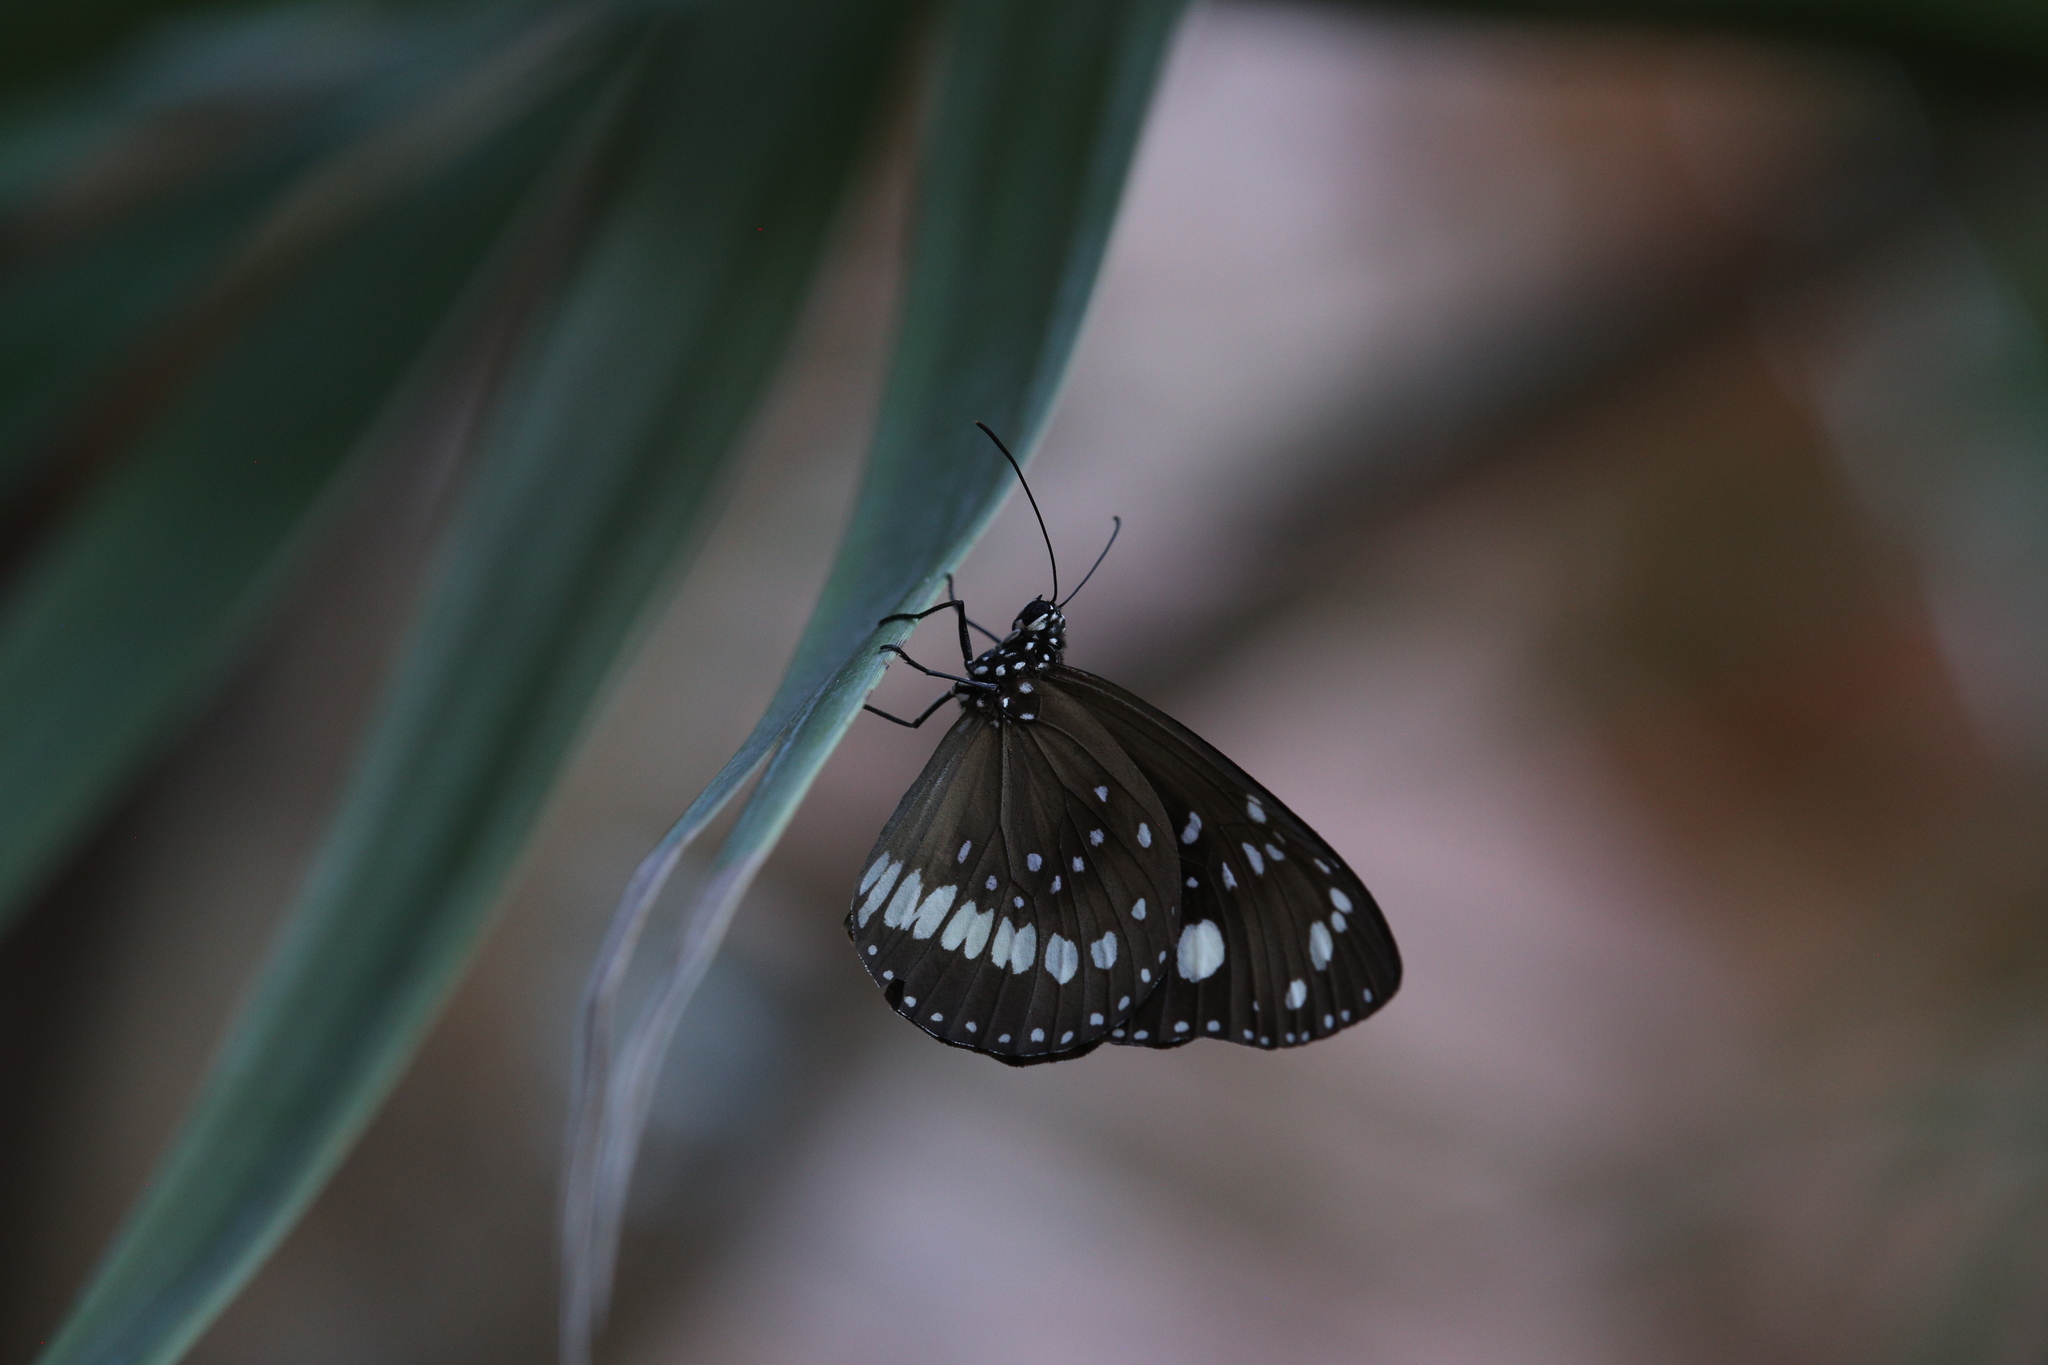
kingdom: Animalia
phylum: Arthropoda
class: Insecta
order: Lepidoptera
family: Nymphalidae
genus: Euploea
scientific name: Euploea core
